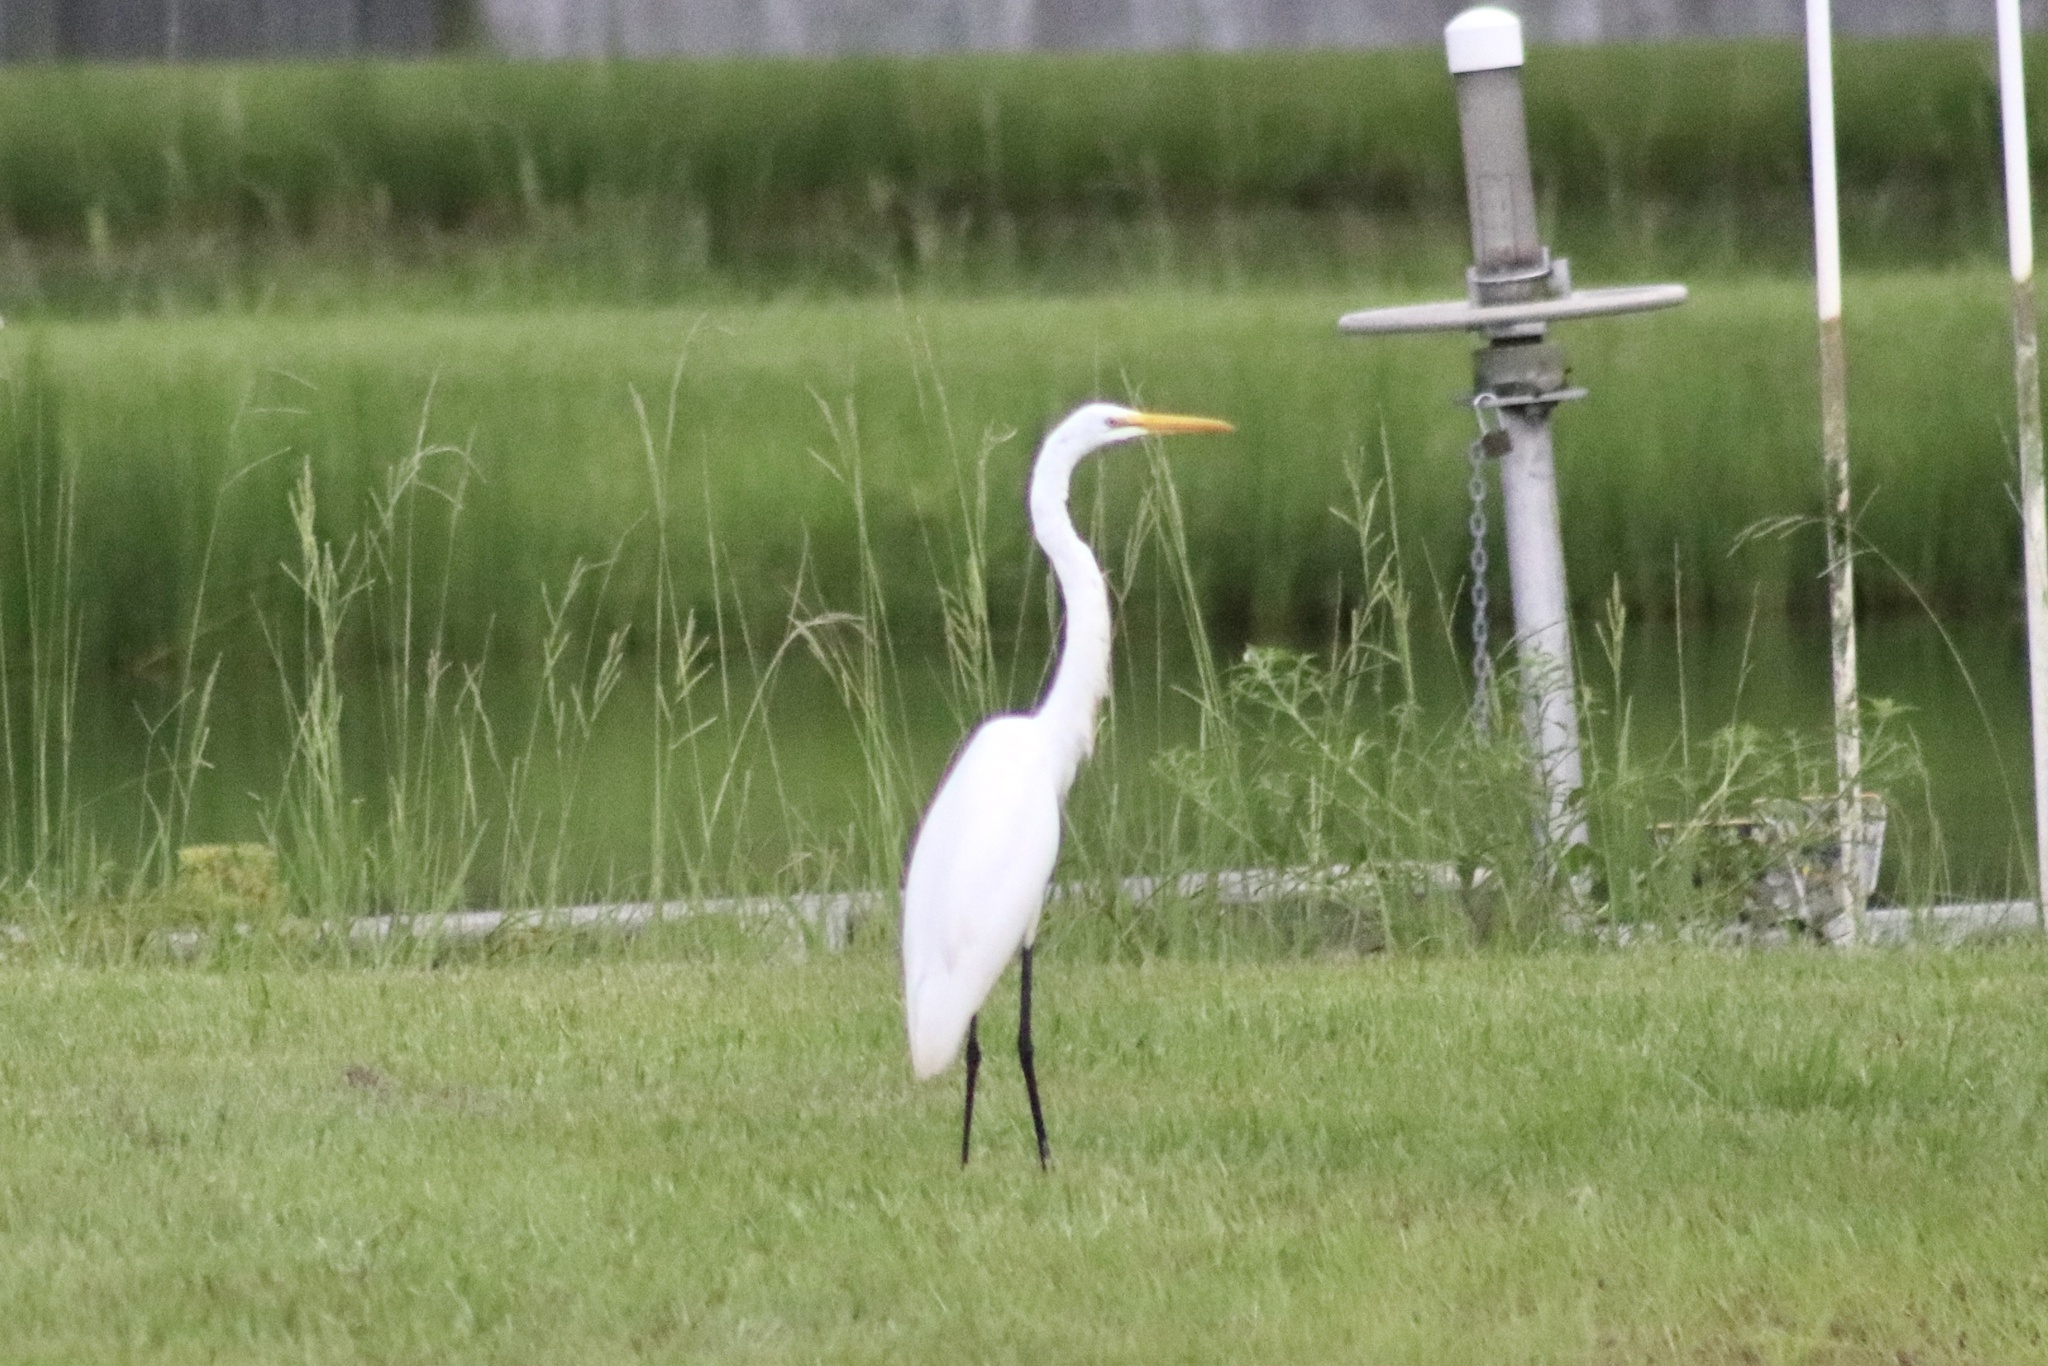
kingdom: Animalia
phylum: Chordata
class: Aves
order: Pelecaniformes
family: Ardeidae
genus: Ardea
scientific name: Ardea alba
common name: Great egret
